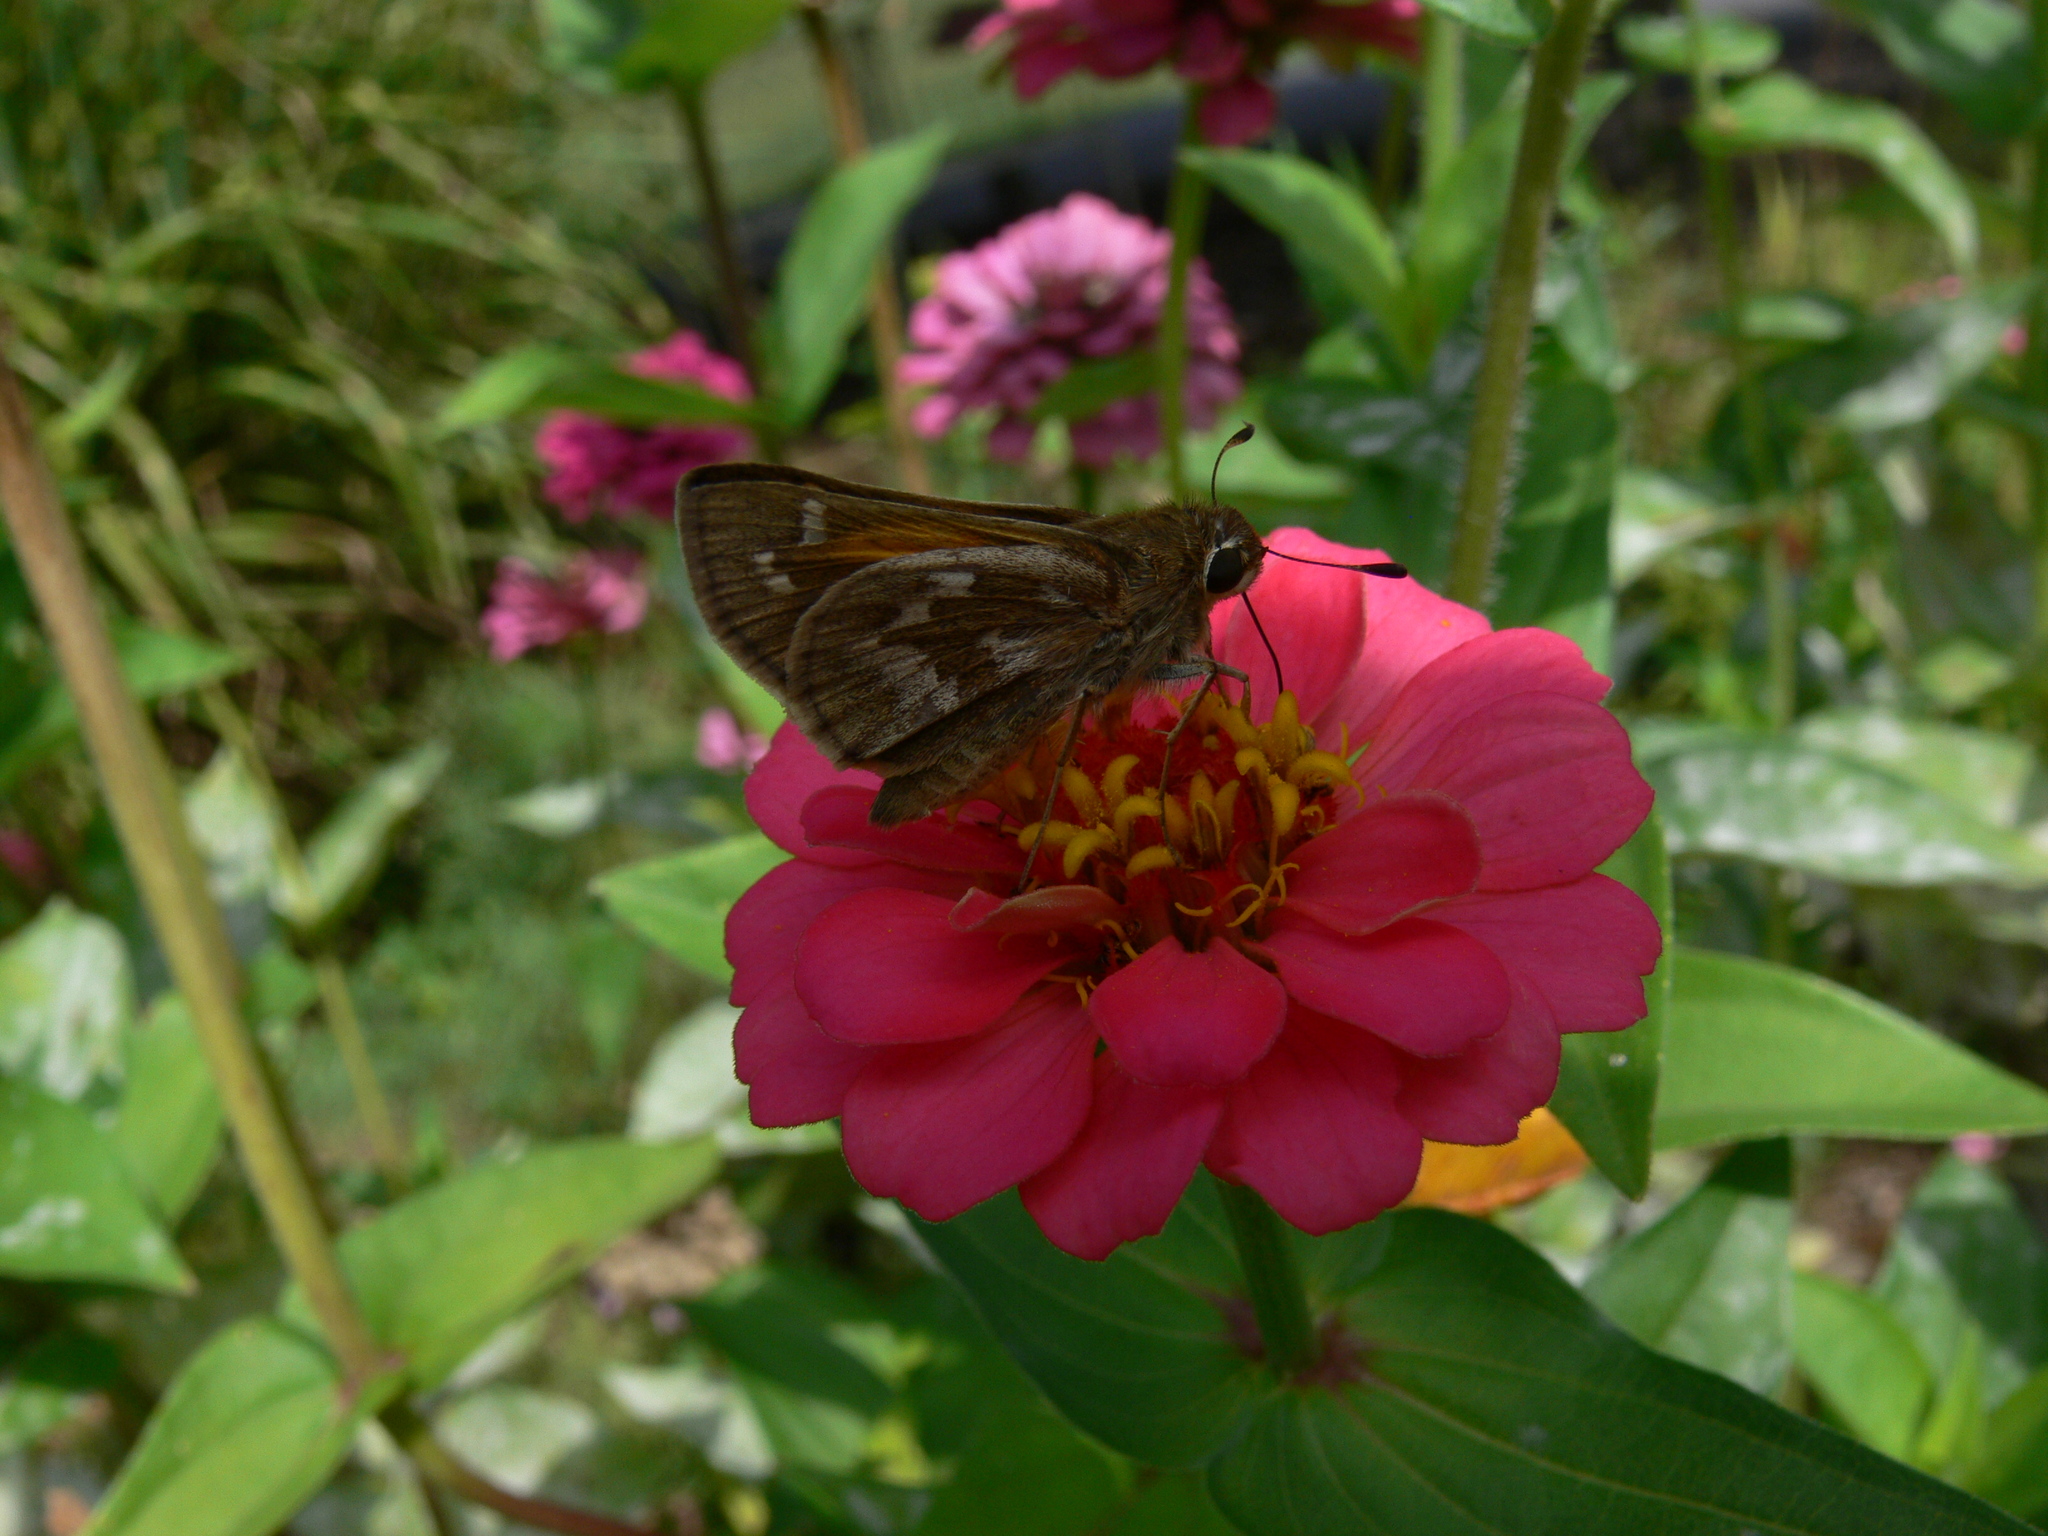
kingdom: Animalia
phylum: Arthropoda
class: Insecta
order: Lepidoptera
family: Hesperiidae
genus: Atalopedes
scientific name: Atalopedes
